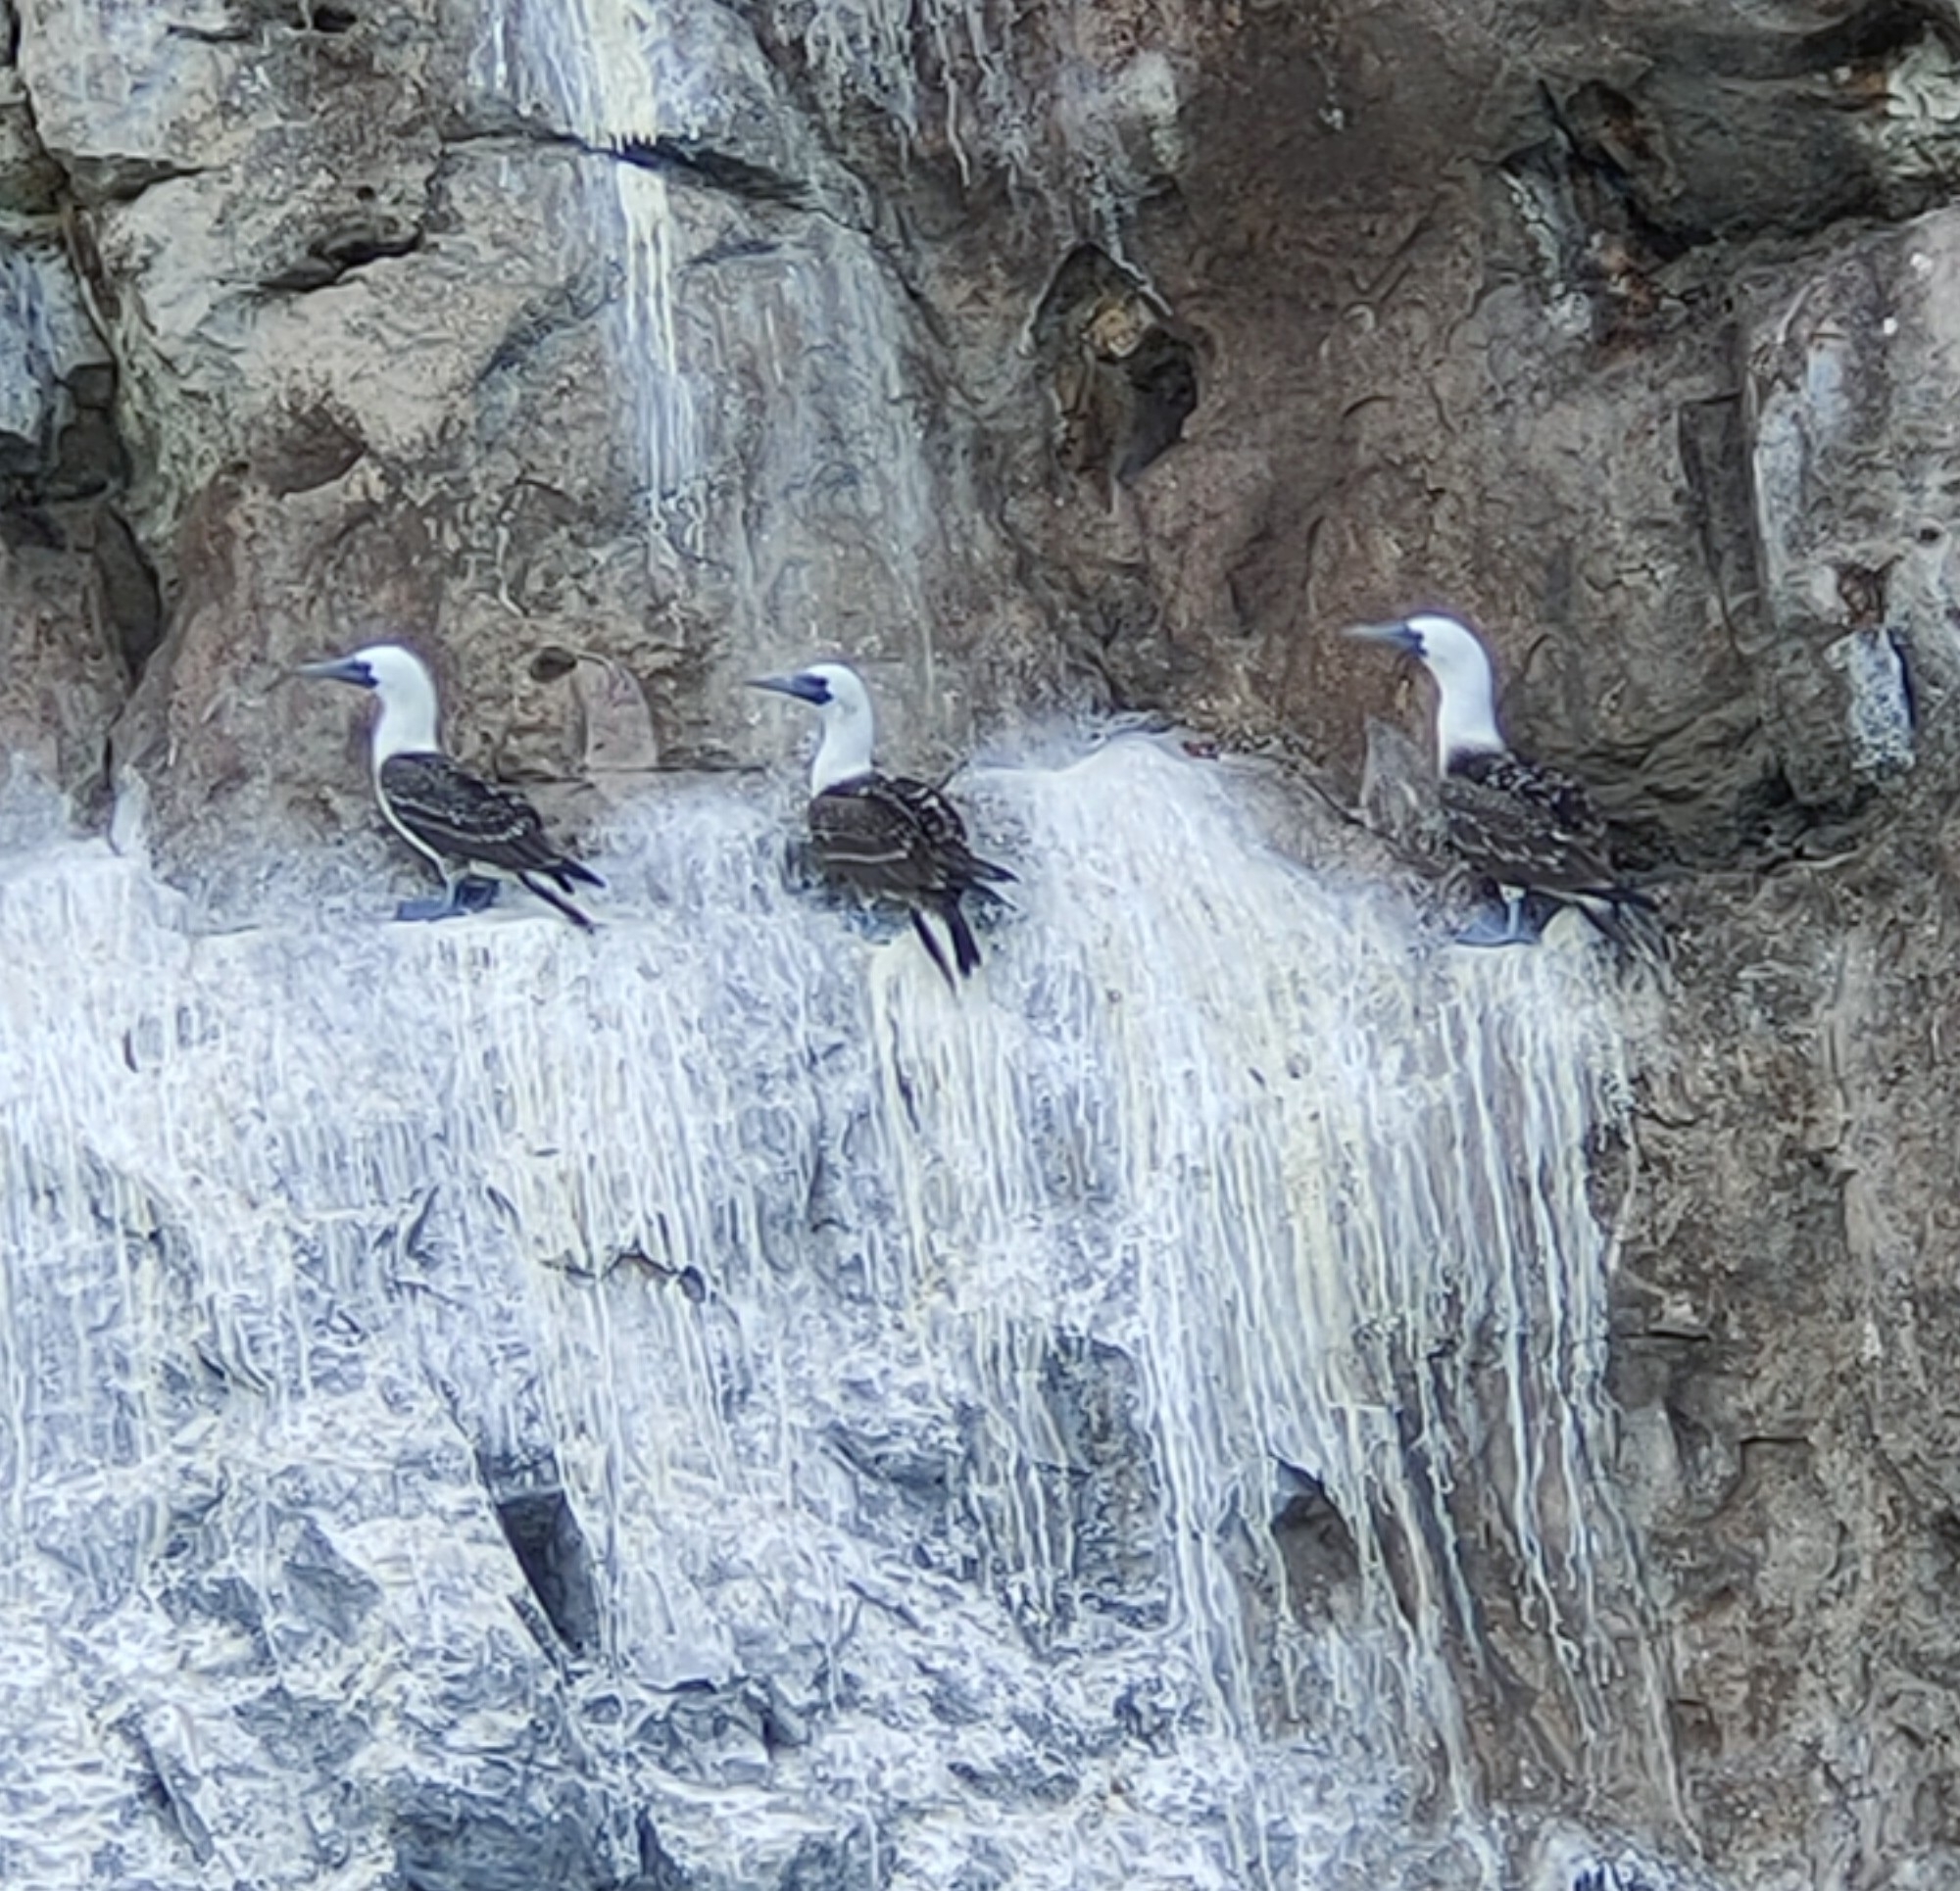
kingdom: Animalia
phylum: Chordata
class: Aves
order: Suliformes
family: Sulidae
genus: Sula
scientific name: Sula variegata
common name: Peruvian booby
